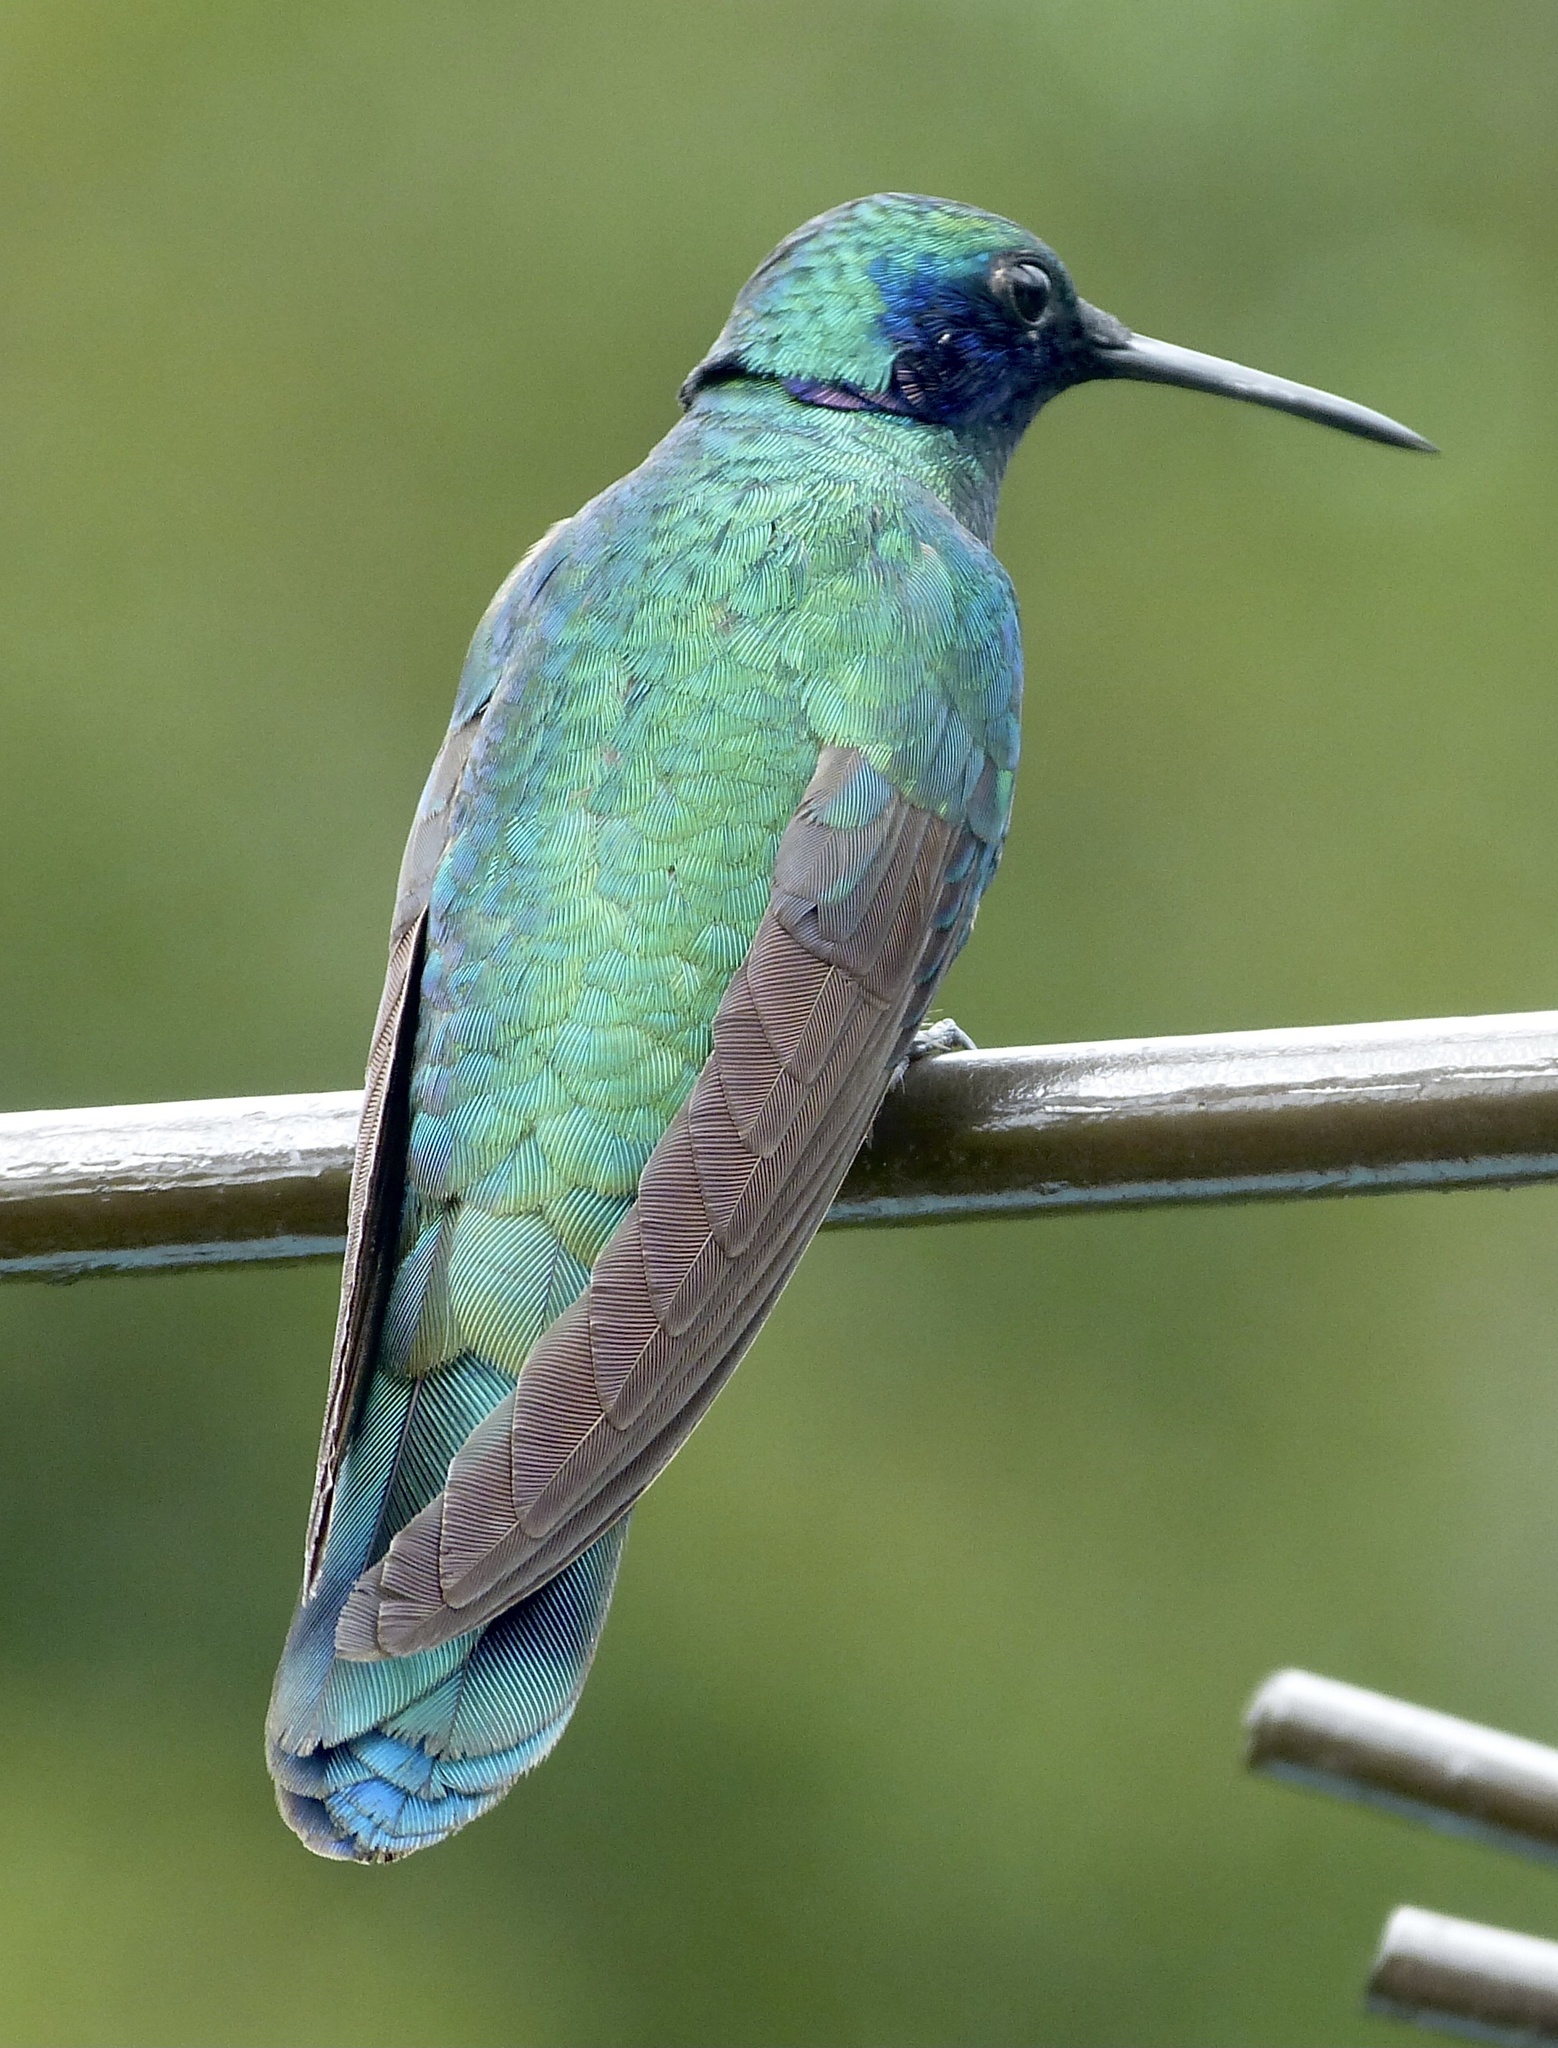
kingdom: Animalia
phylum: Chordata
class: Aves
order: Apodiformes
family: Trochilidae
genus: Colibri
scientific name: Colibri coruscans
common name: Sparkling violetear
